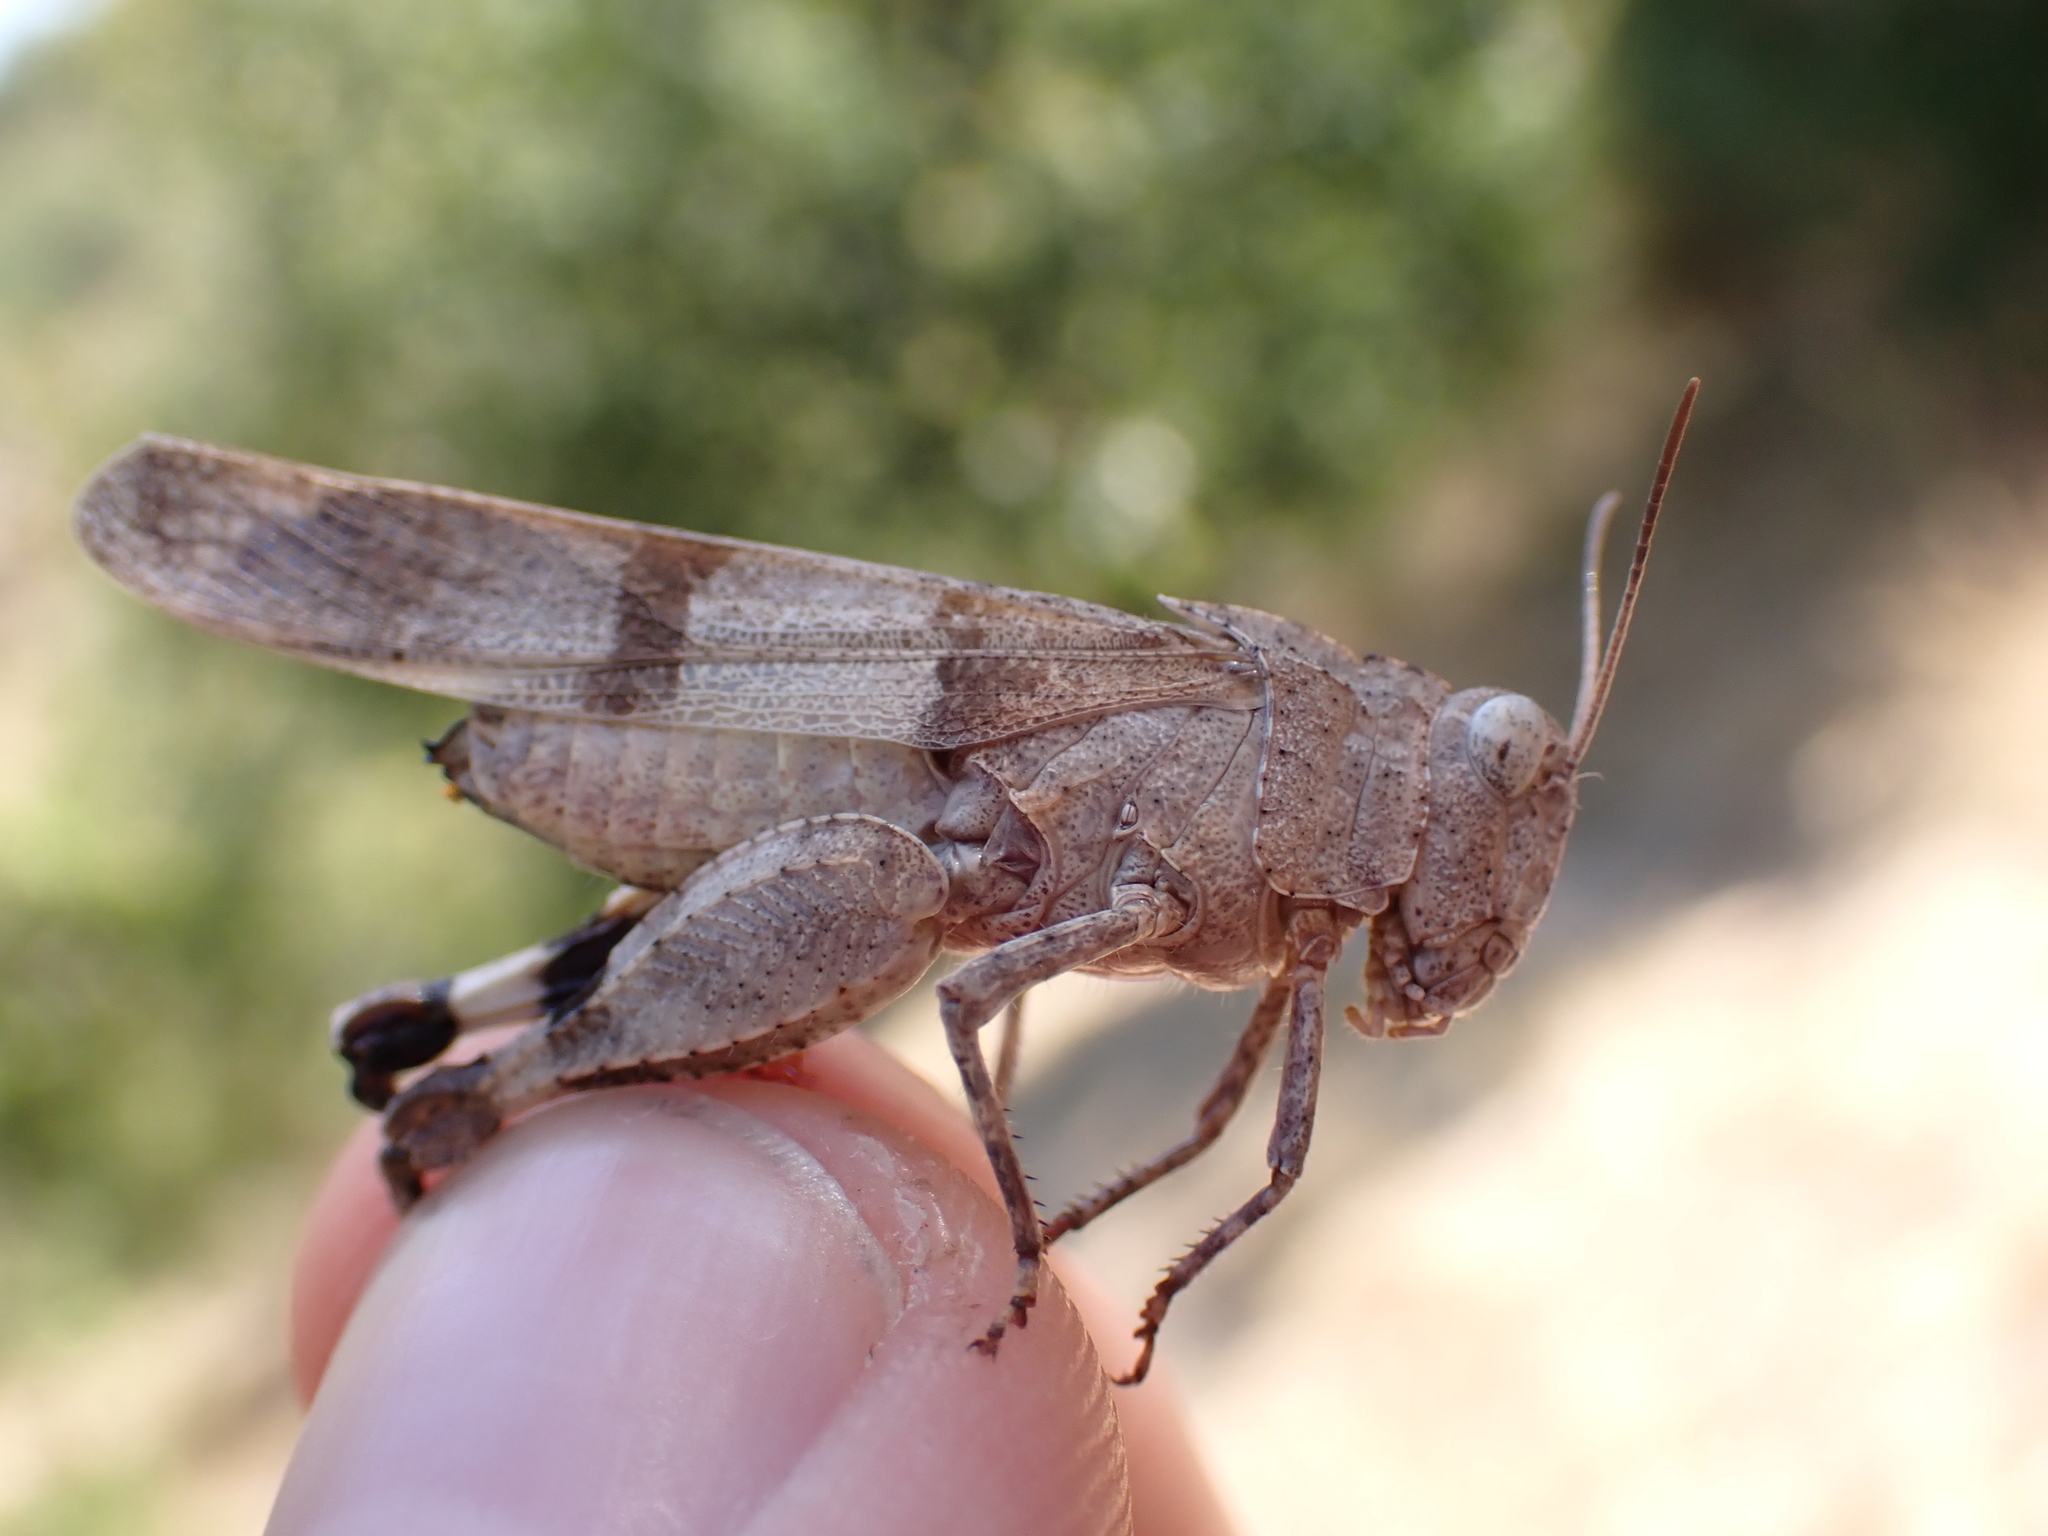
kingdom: Animalia
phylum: Arthropoda
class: Insecta
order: Orthoptera
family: Acrididae
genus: Oedipoda
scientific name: Oedipoda caerulescens
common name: Blue-winged grasshopper
